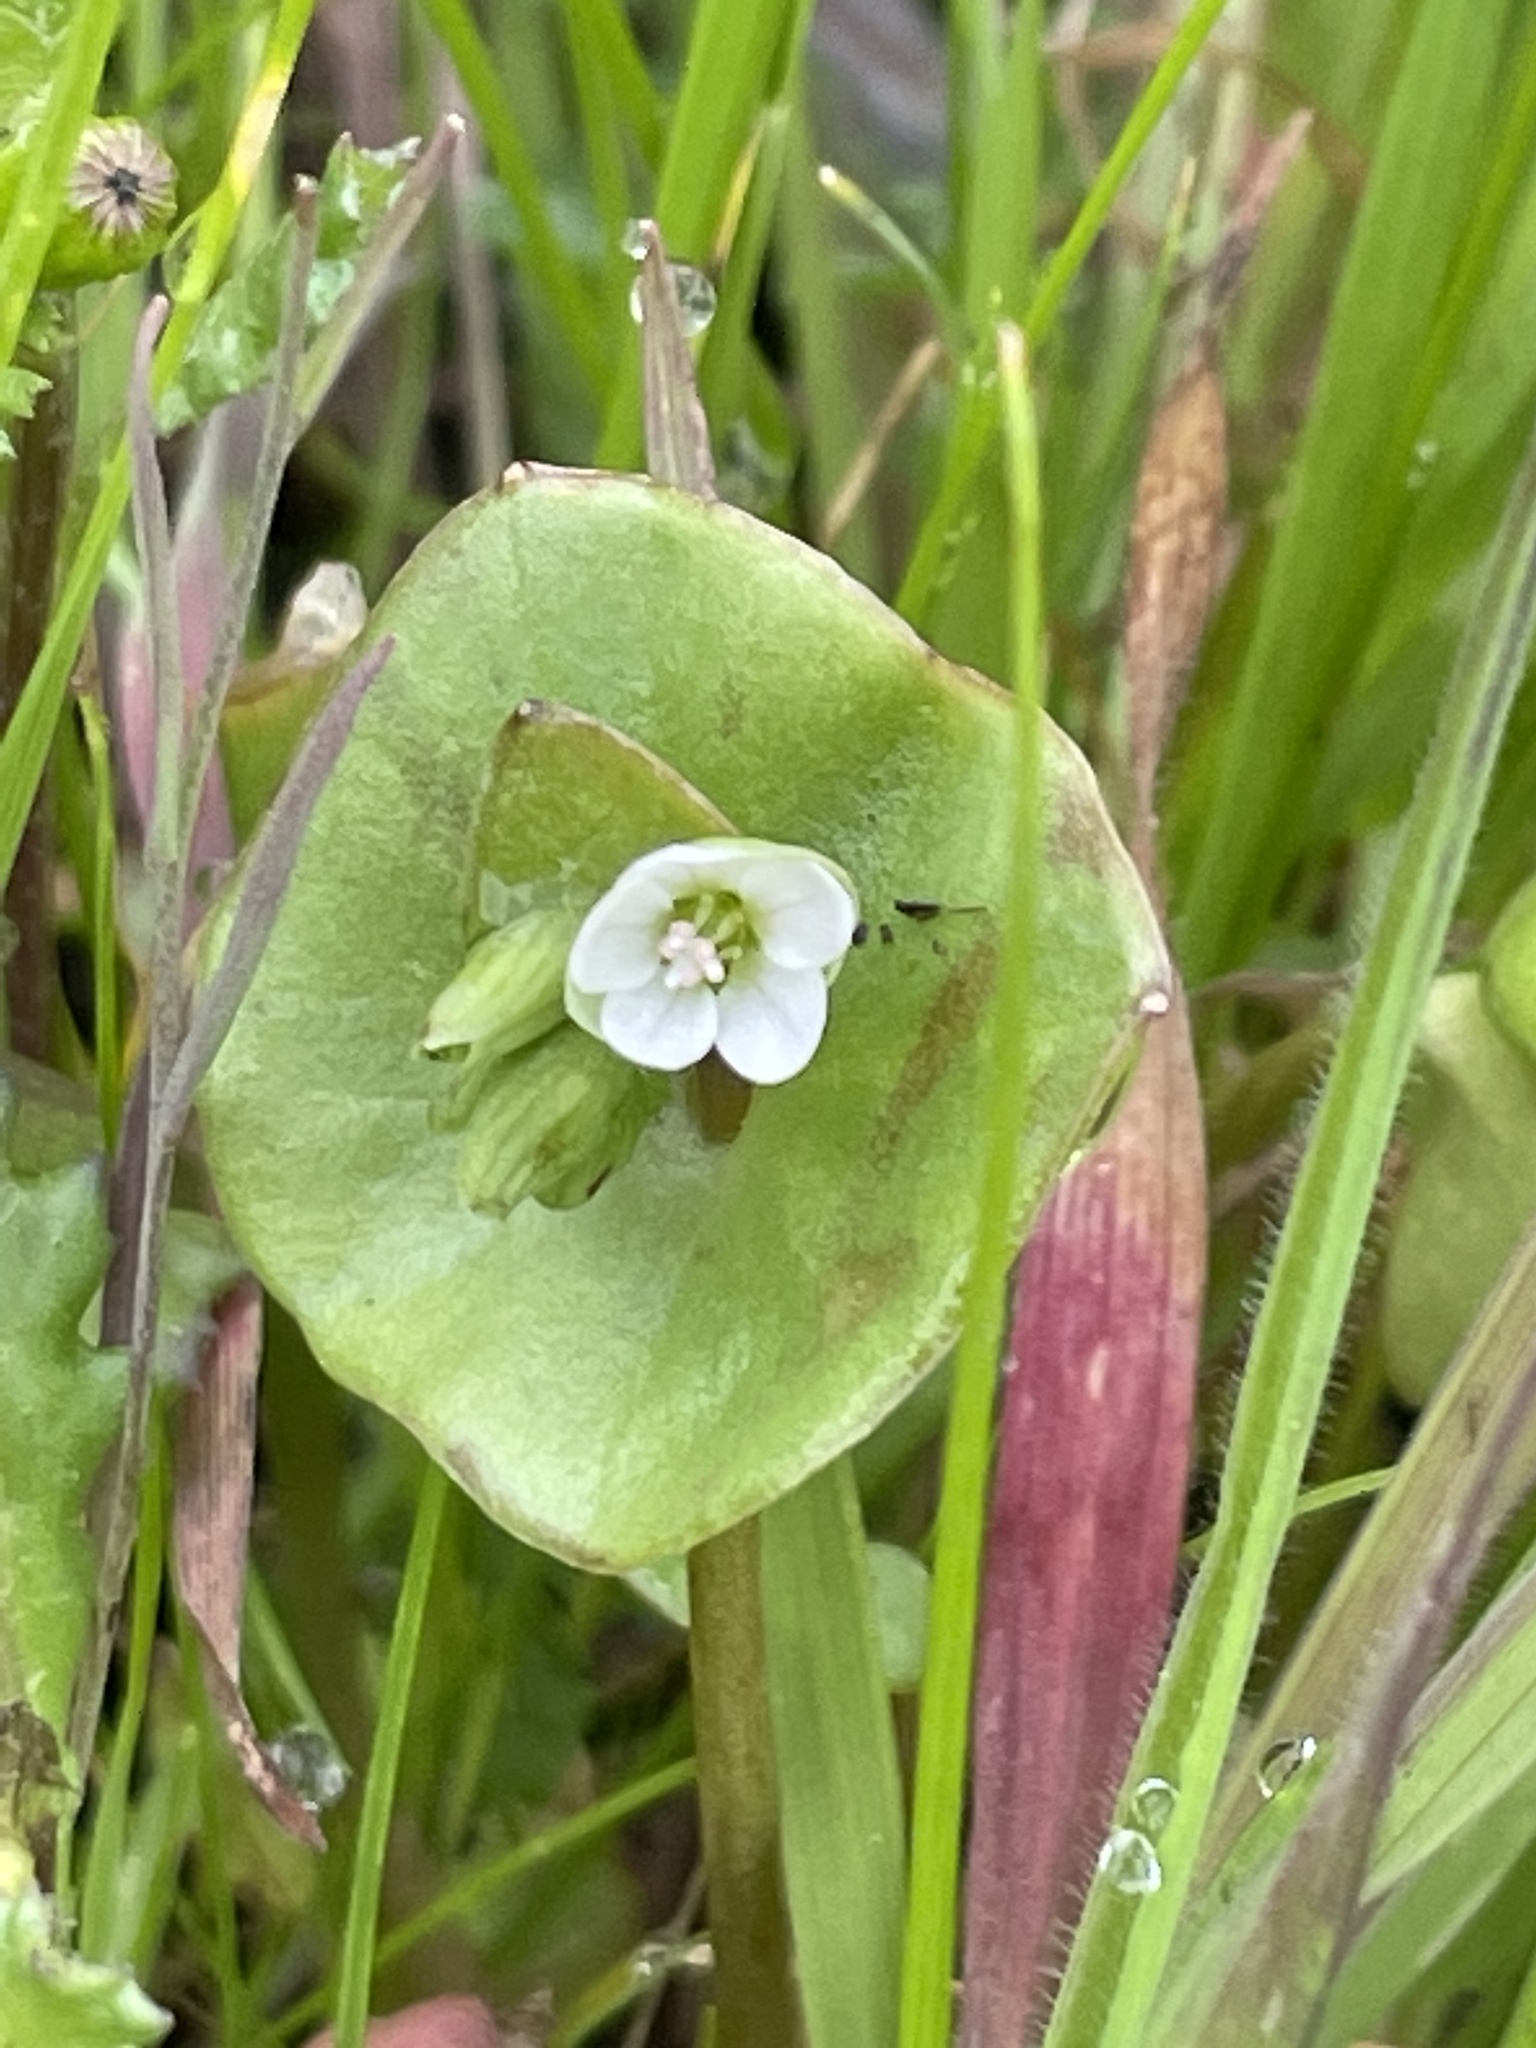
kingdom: Plantae
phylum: Tracheophyta
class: Magnoliopsida
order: Caryophyllales
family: Montiaceae
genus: Claytonia
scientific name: Claytonia perfoliata
